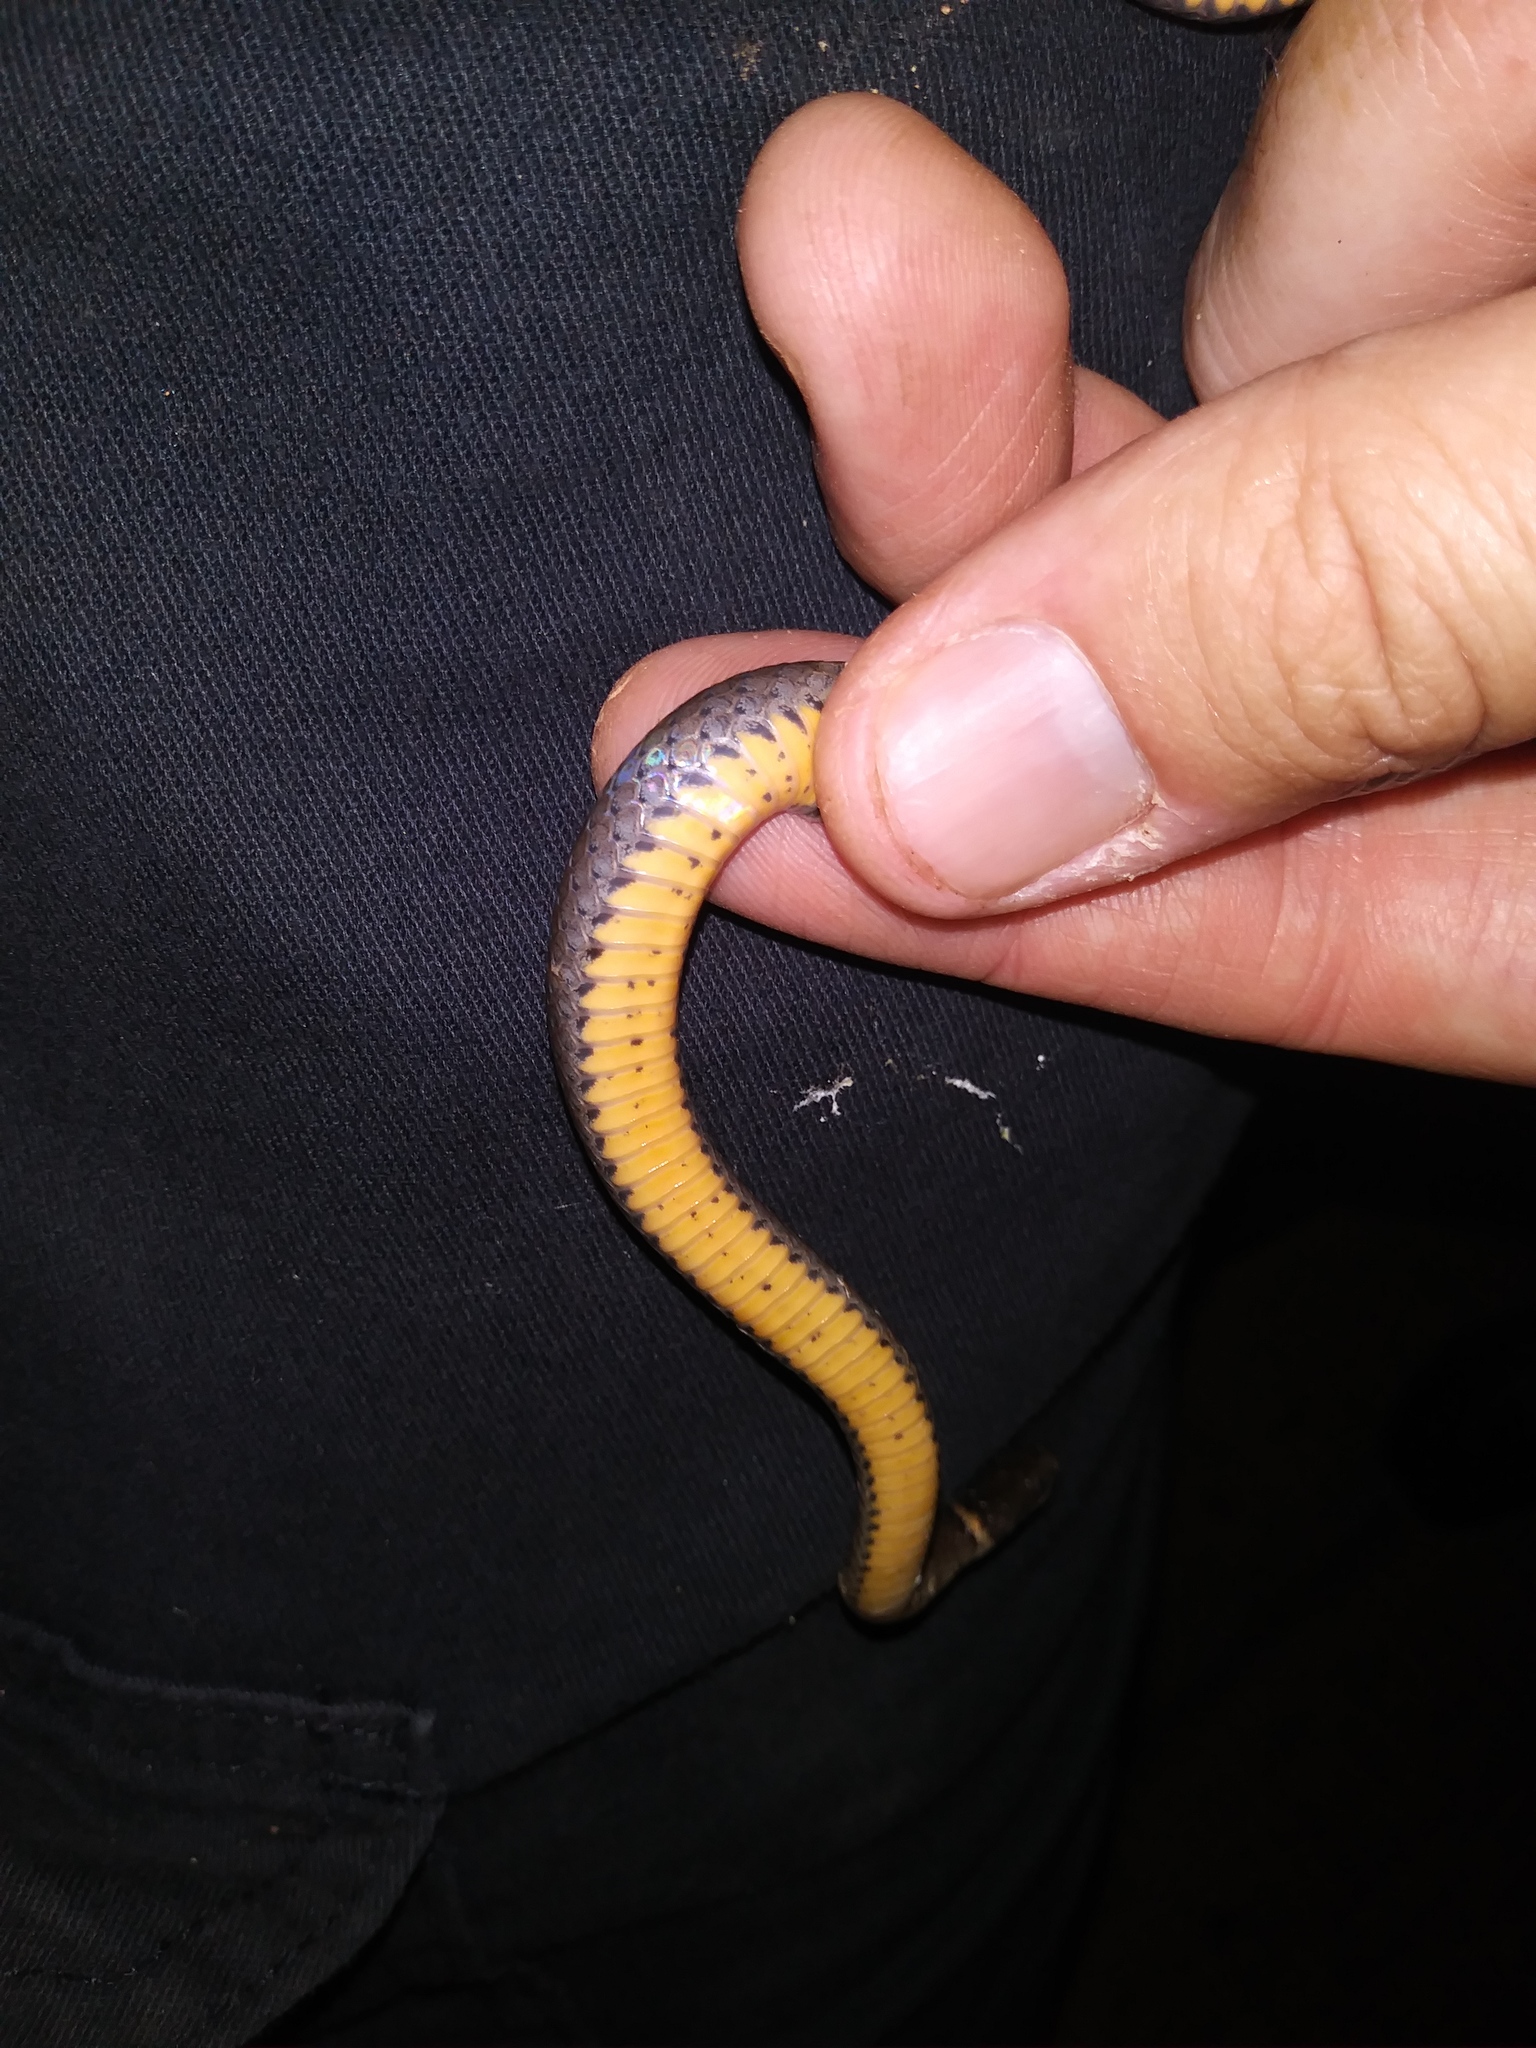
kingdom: Animalia
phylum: Chordata
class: Squamata
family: Colubridae
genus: Diadophis
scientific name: Diadophis punctatus
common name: Ringneck snake
